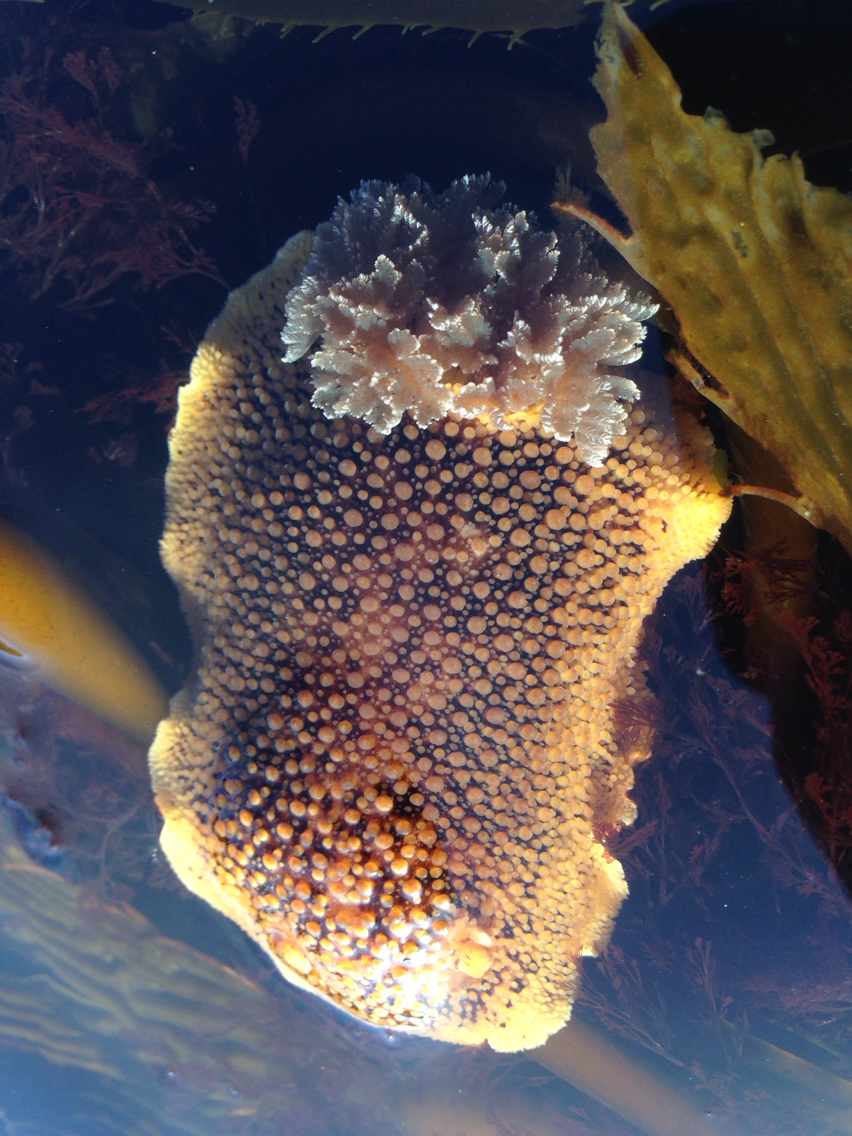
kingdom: Animalia
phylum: Mollusca
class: Gastropoda
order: Nudibranchia
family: Discodorididae
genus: Peltodoris
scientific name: Peltodoris nobilis
